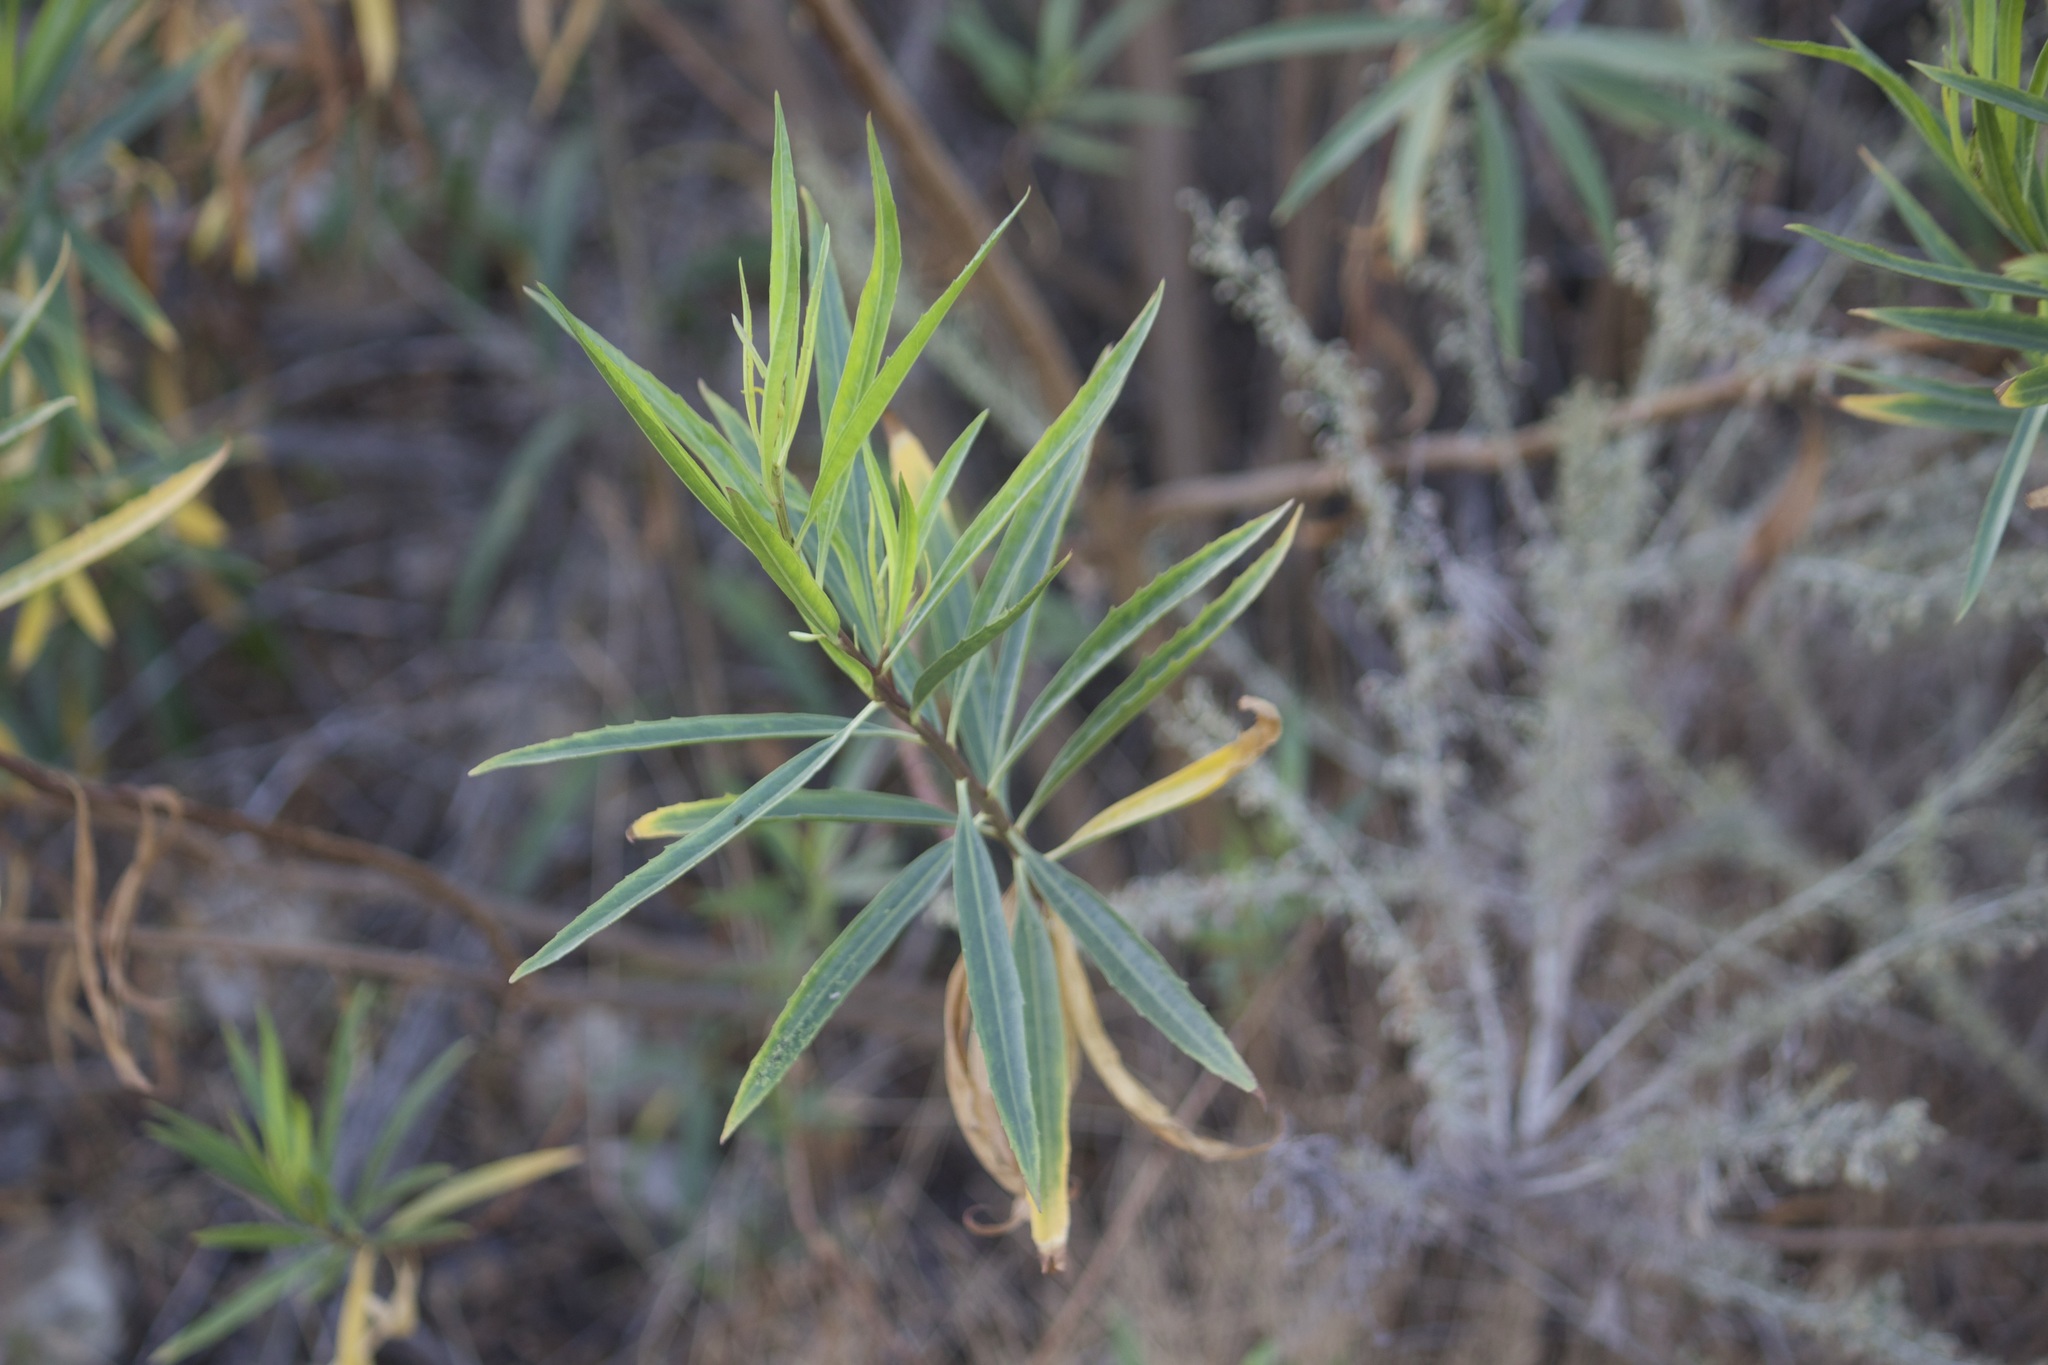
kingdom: Plantae
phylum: Tracheophyta
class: Magnoliopsida
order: Asterales
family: Asteraceae
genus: Baccharis
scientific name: Baccharis salicifolia
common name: Sticky baccharis
